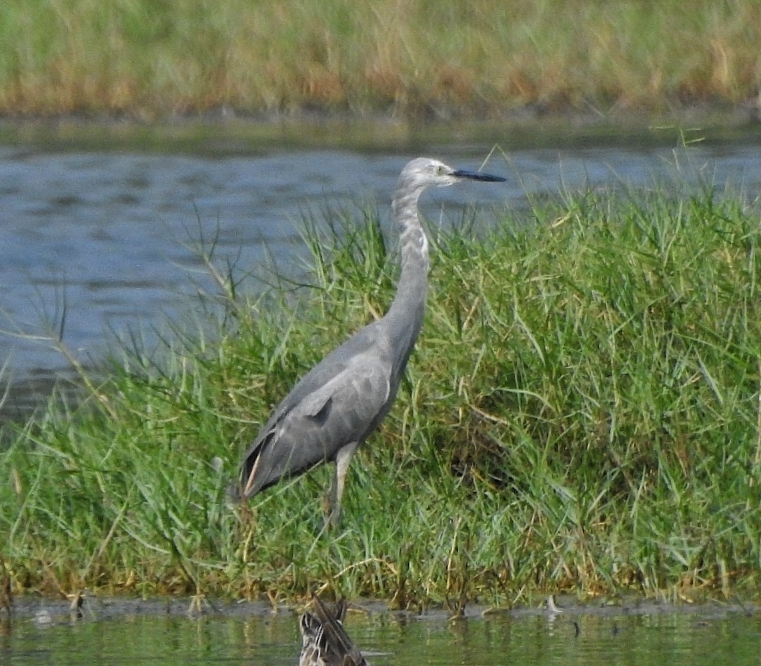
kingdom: Animalia
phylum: Chordata
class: Aves
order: Pelecaniformes
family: Ardeidae
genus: Egretta
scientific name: Egretta garzetta
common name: Little egret
